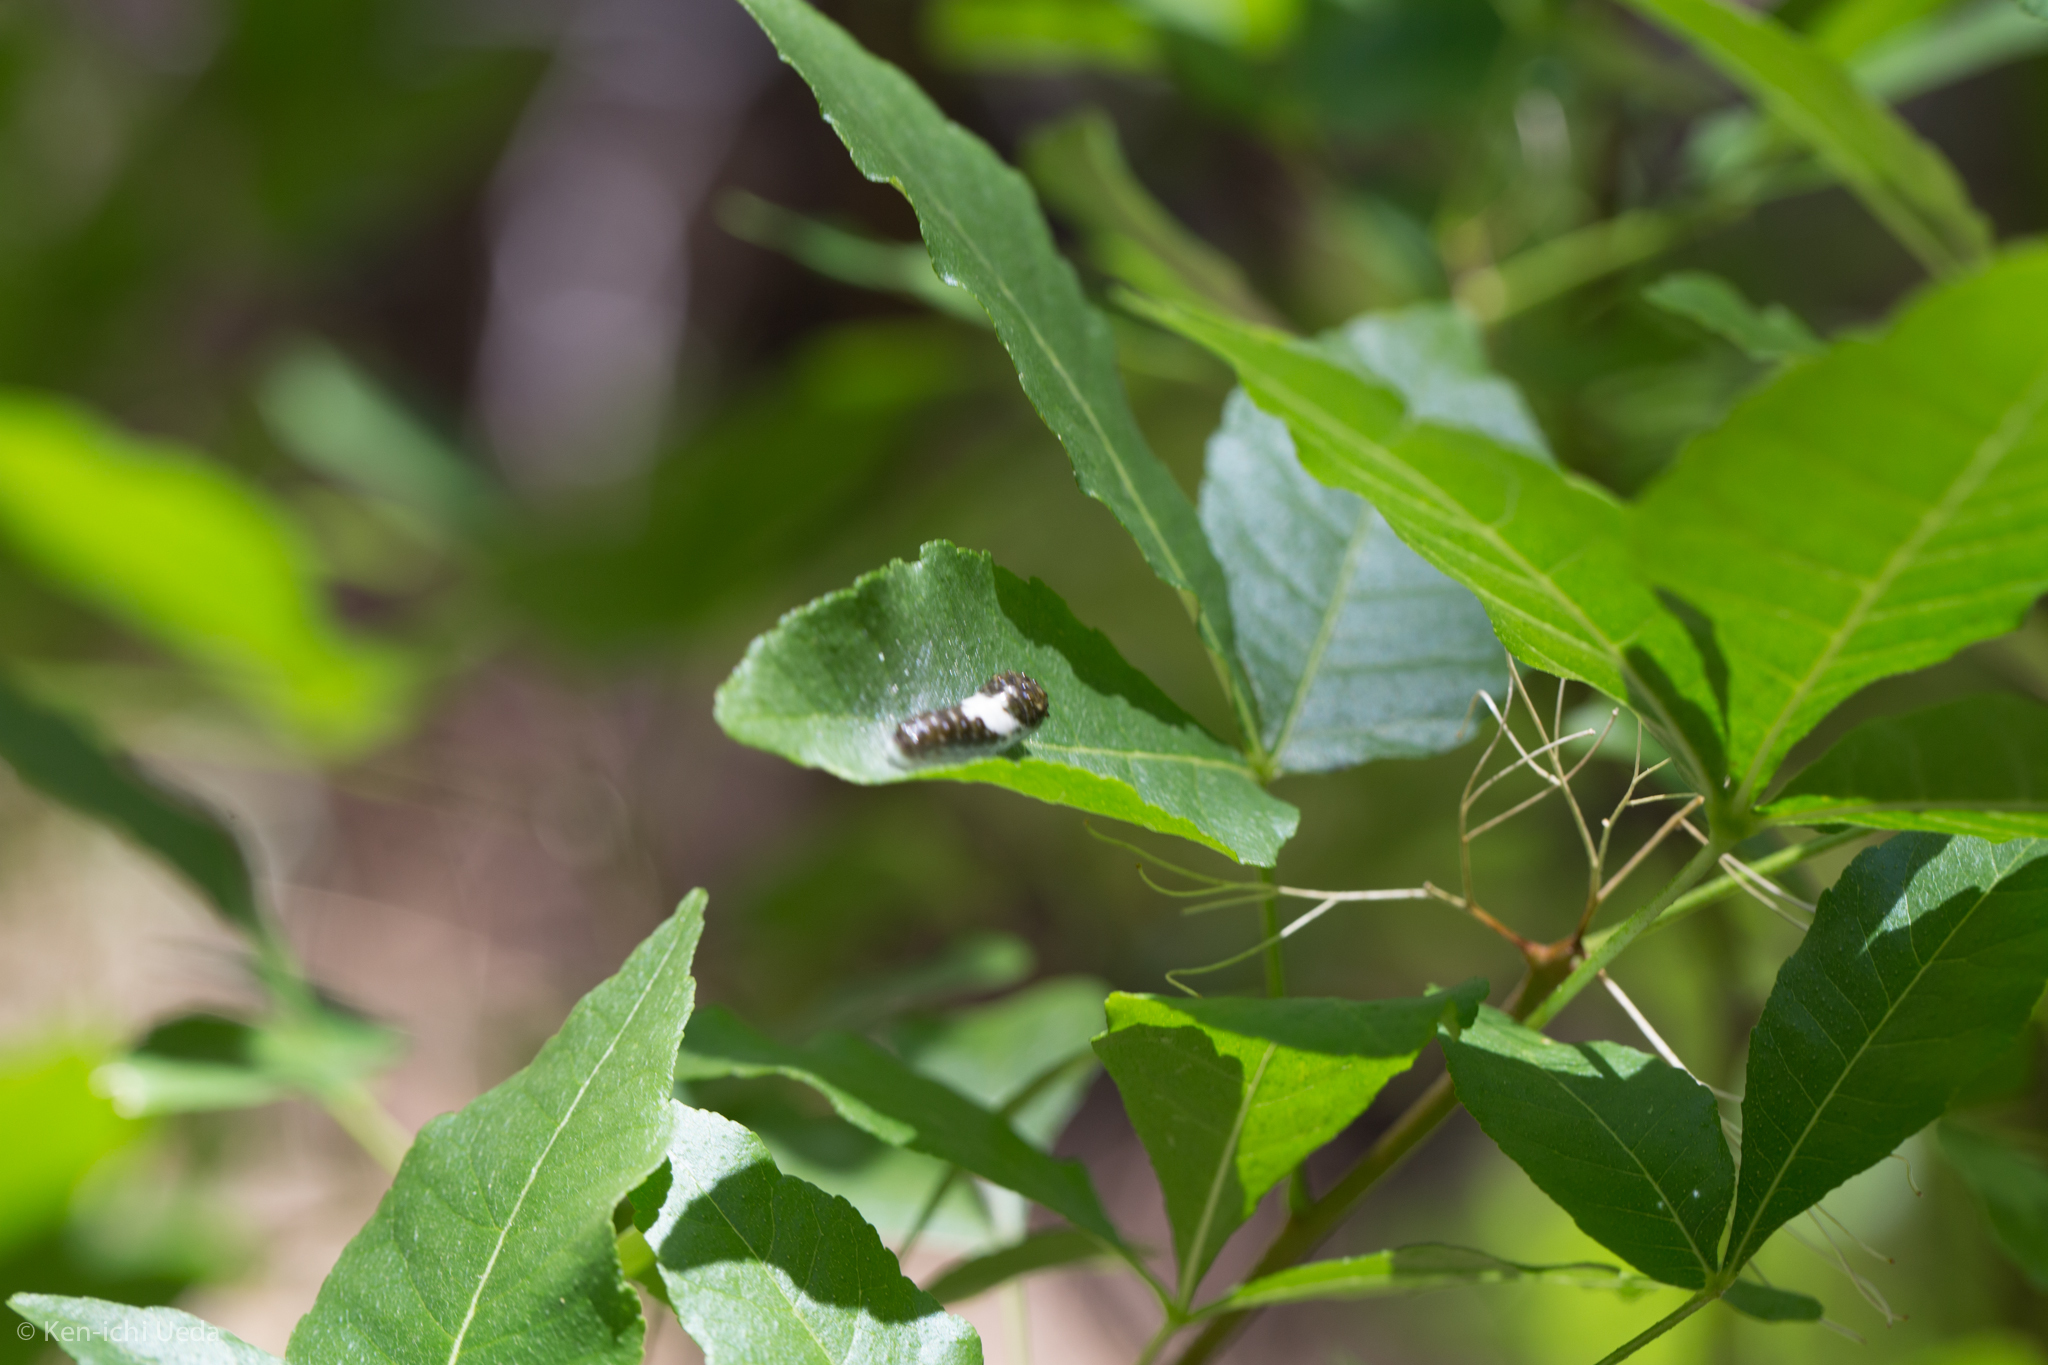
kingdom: Animalia
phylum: Arthropoda
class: Insecta
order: Lepidoptera
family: Papilionidae
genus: Papilio
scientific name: Papilio multicaudata
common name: Two-tailed tiger swallowtail
